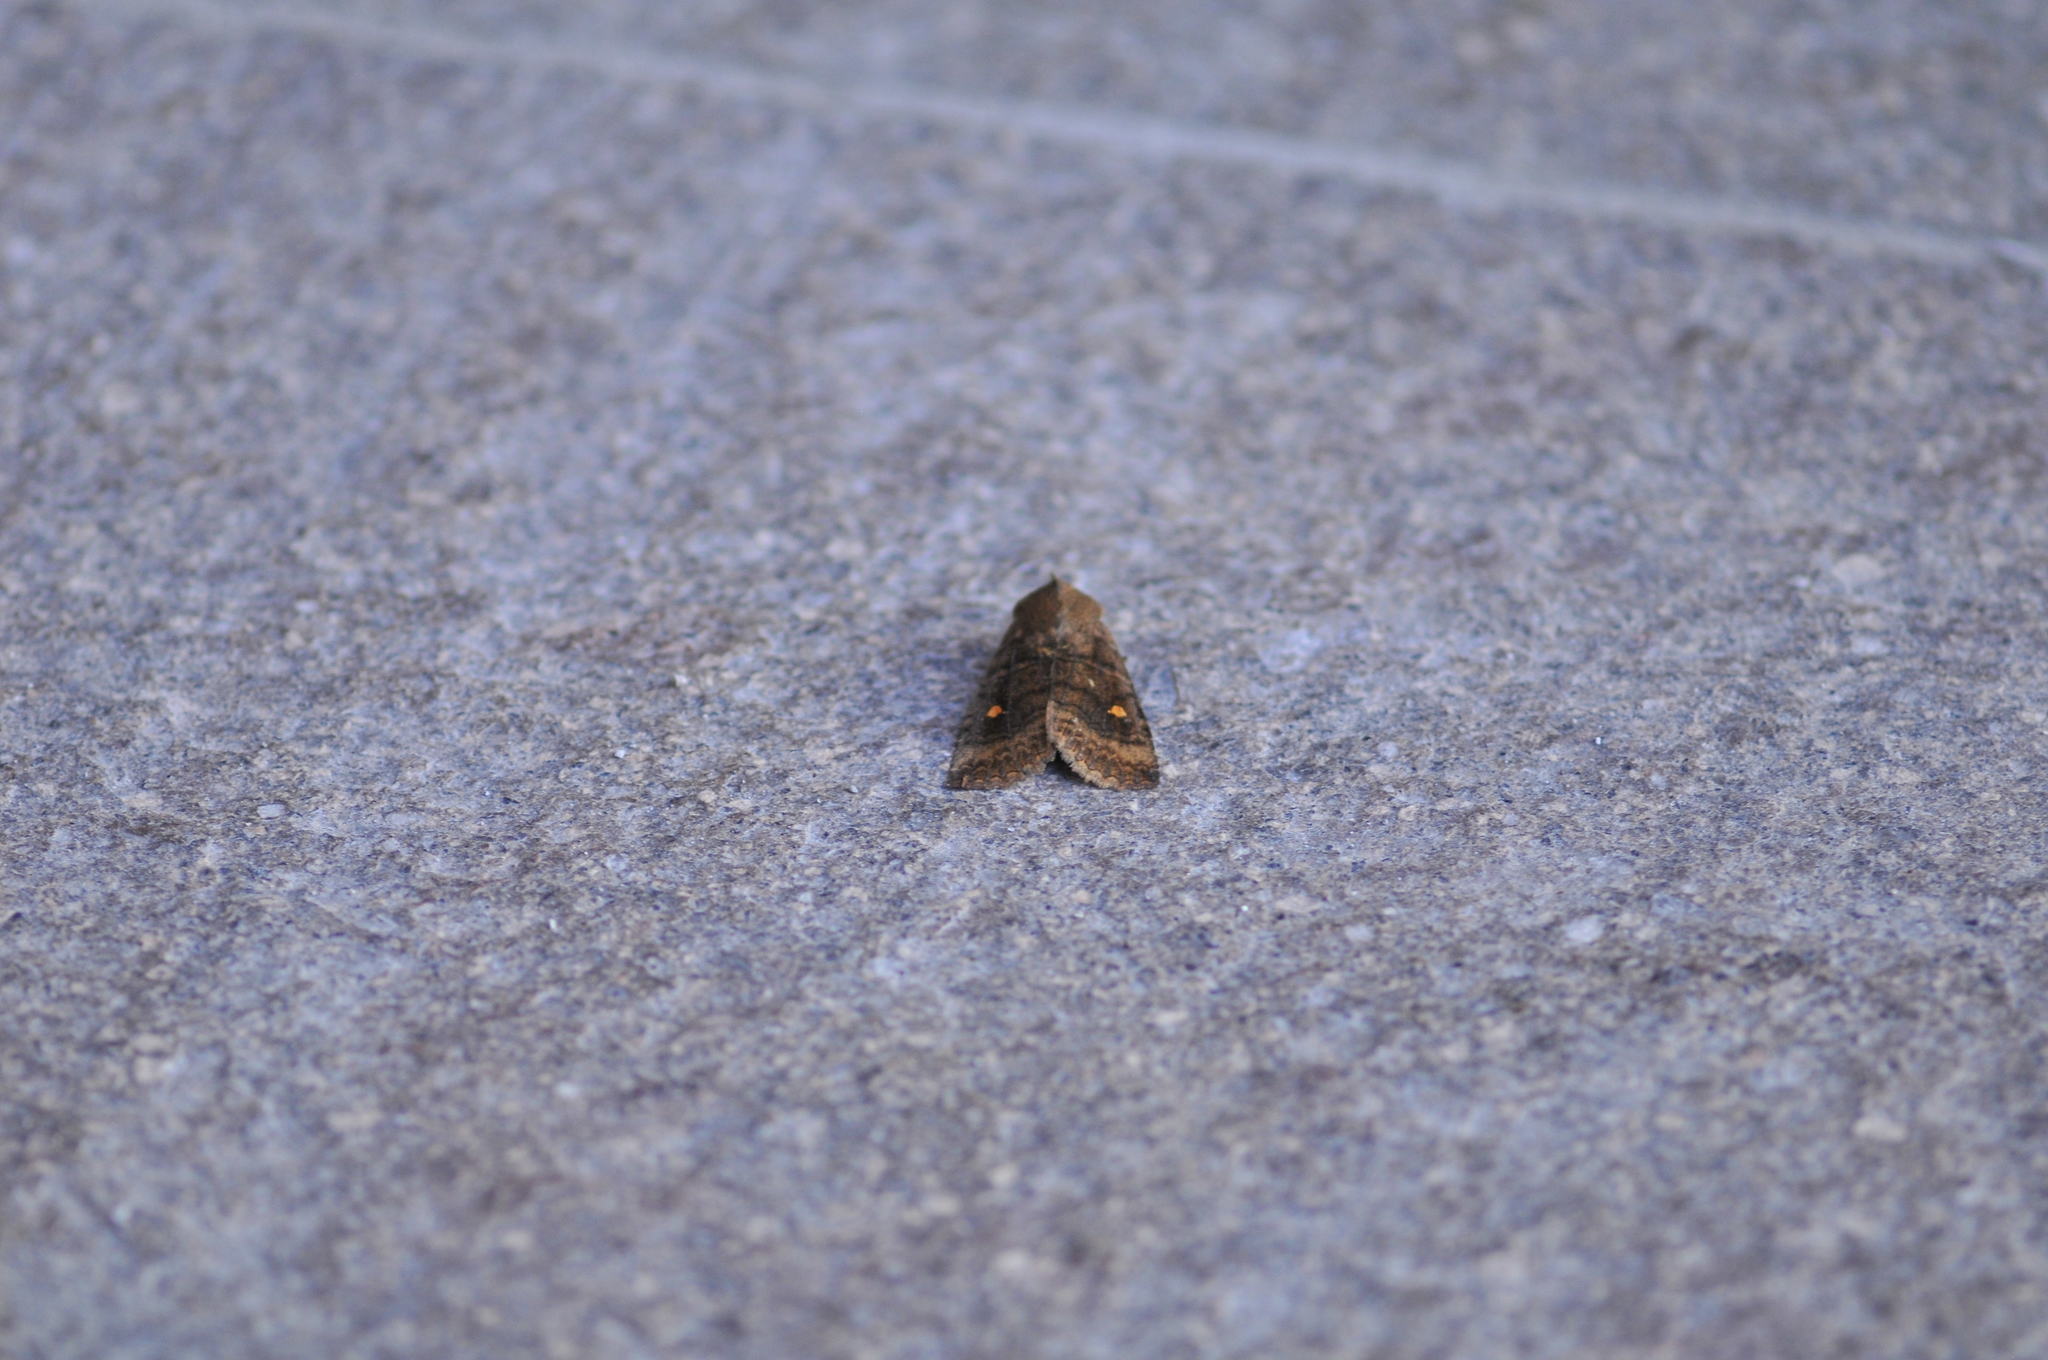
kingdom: Animalia
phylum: Arthropoda
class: Insecta
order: Lepidoptera
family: Noctuidae
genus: Eupsilia
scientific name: Eupsilia transversa
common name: Satellite
